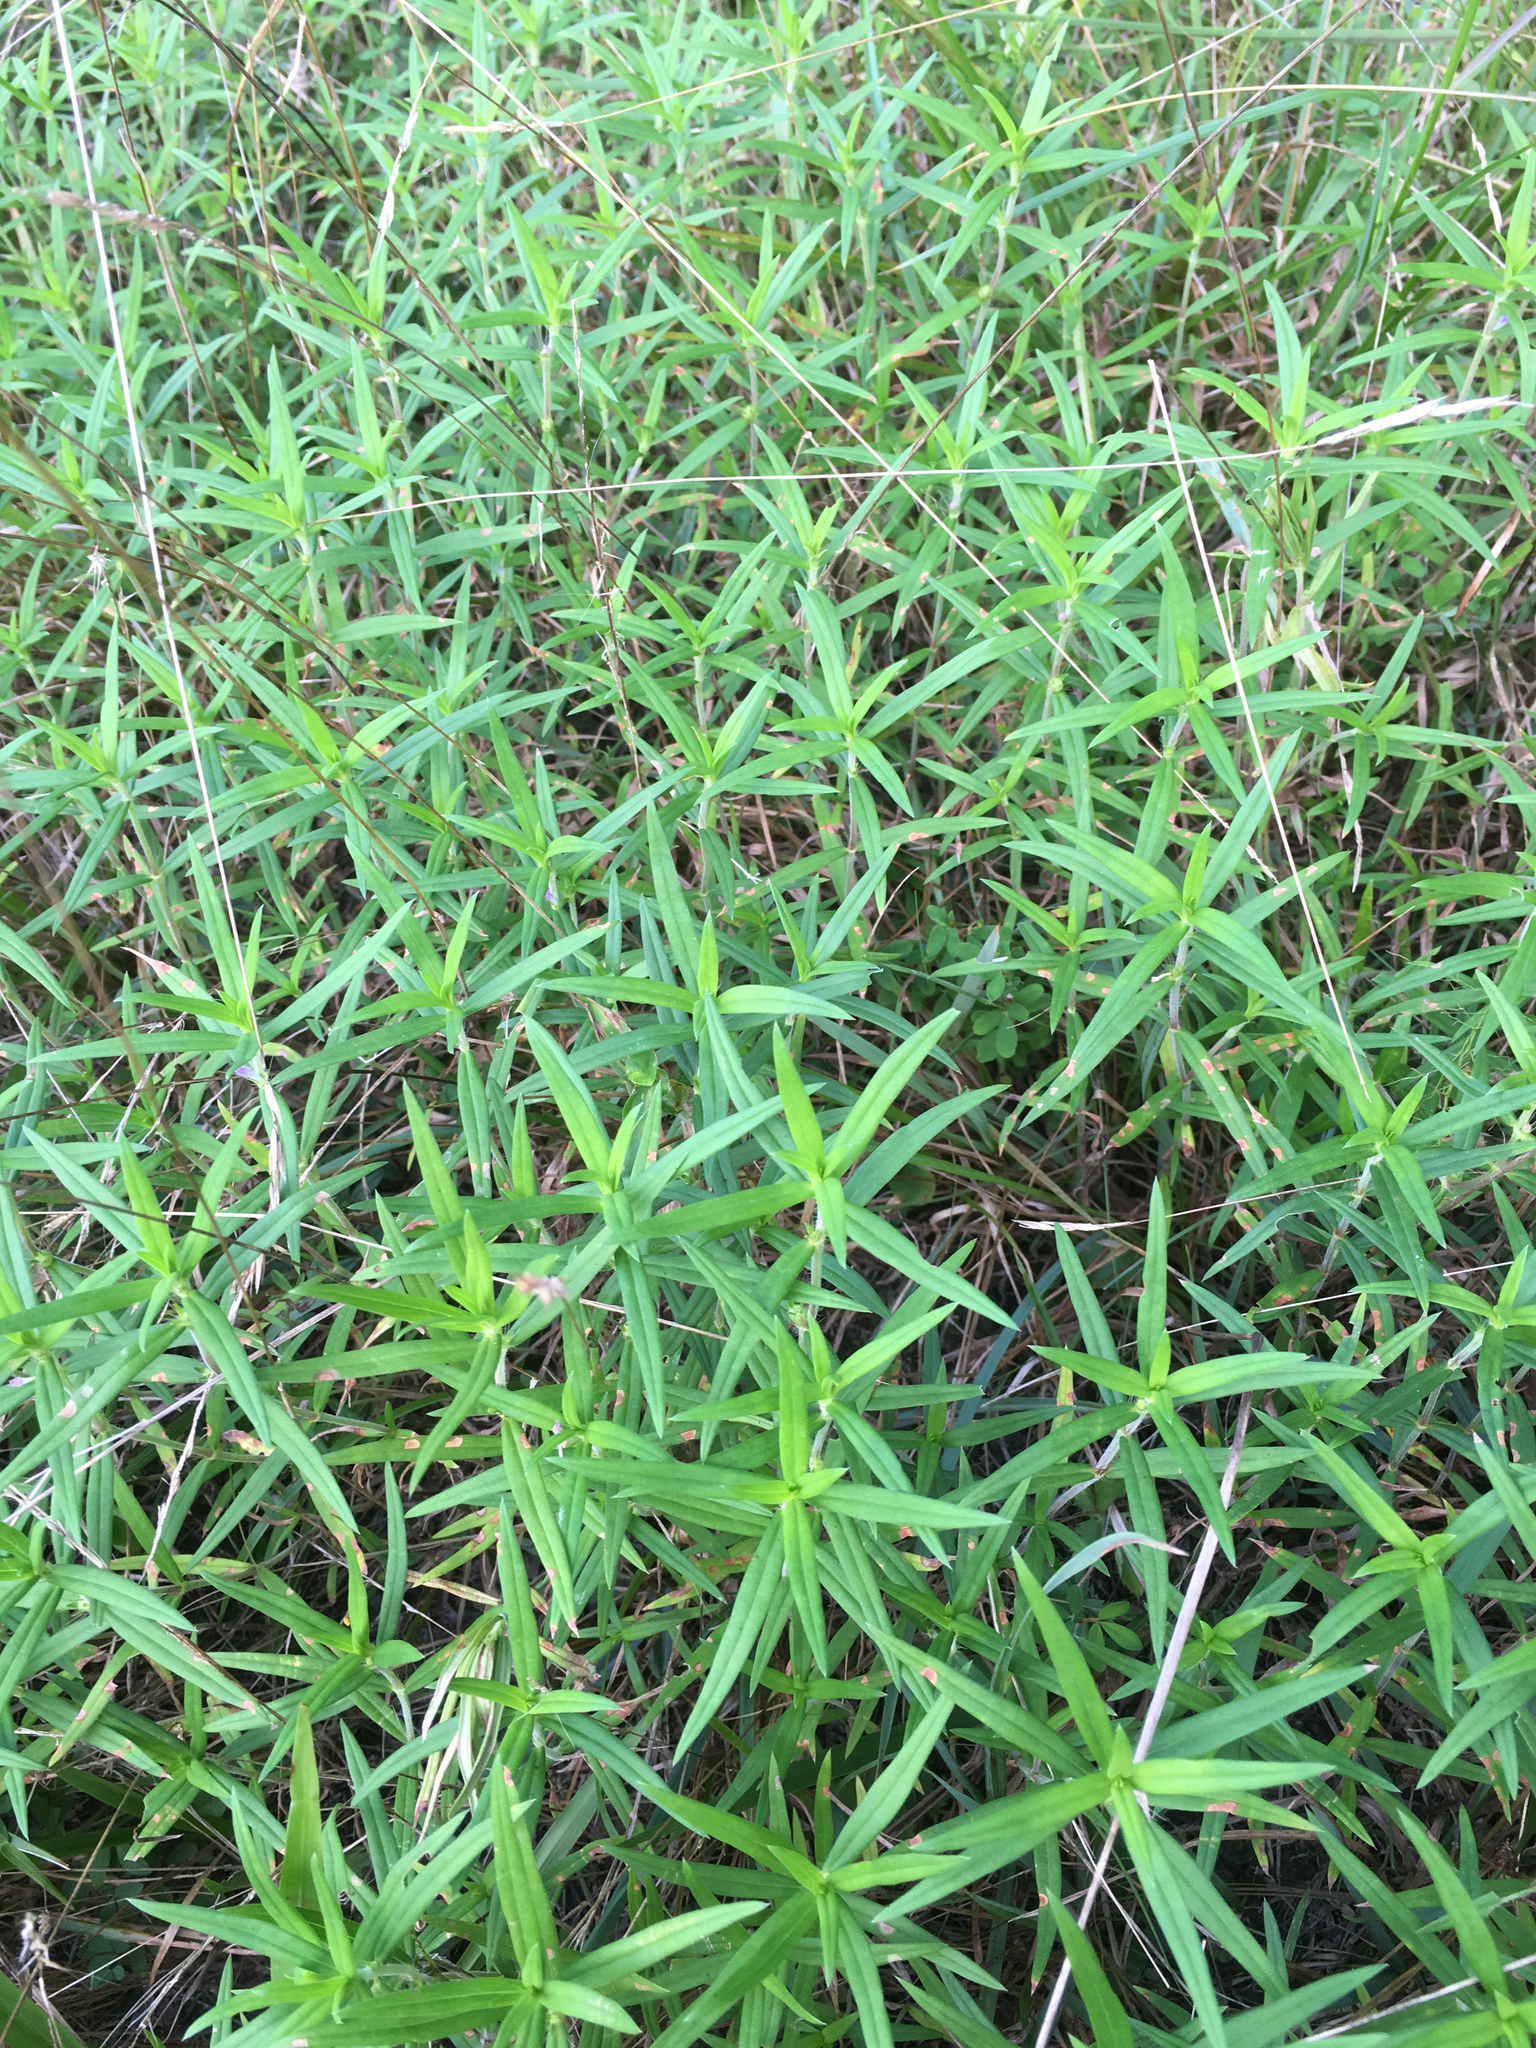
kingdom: Plantae
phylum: Tracheophyta
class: Magnoliopsida
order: Gentianales
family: Rubiaceae
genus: Hexasepalum
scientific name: Hexasepalum teres
